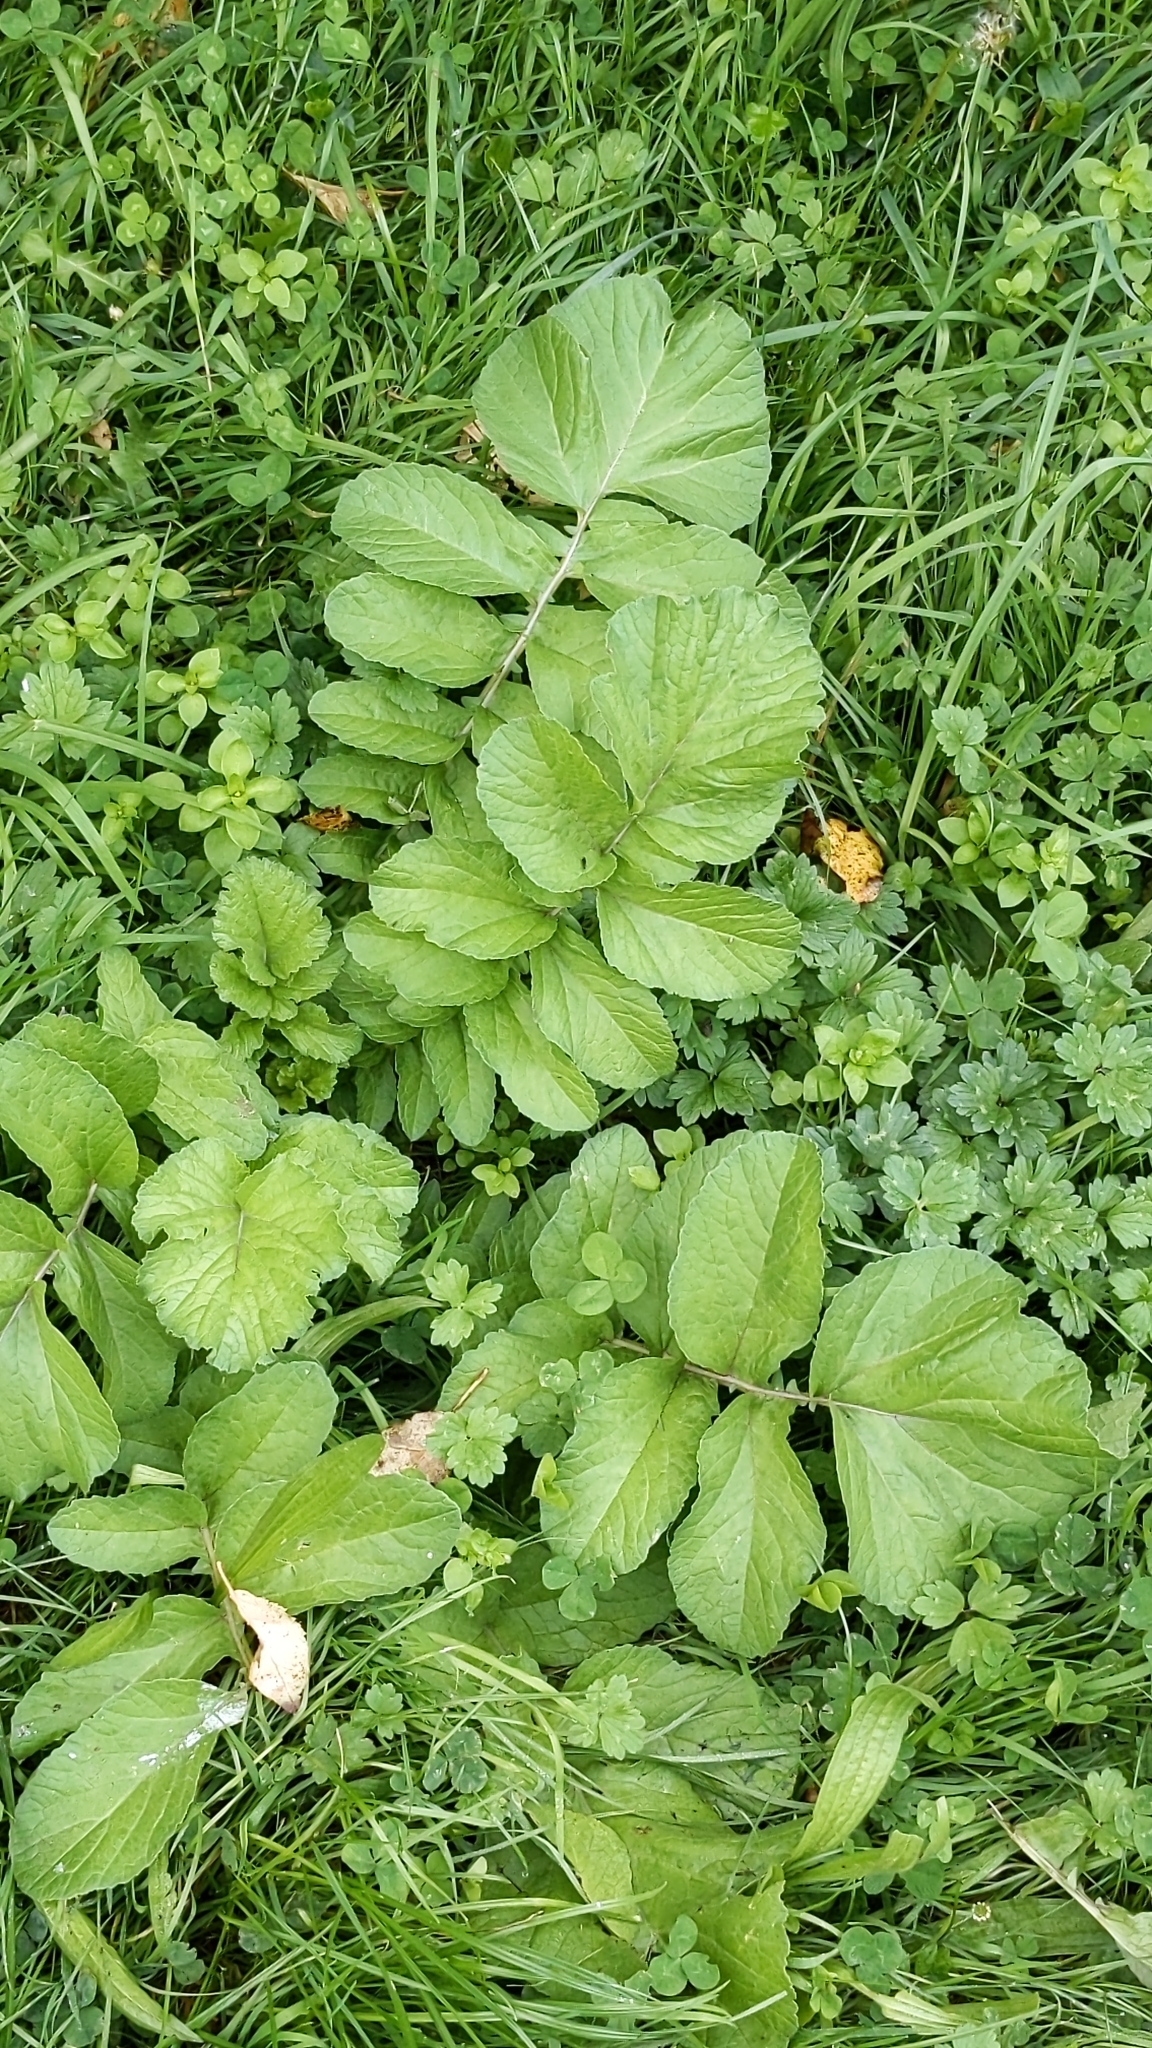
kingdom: Plantae
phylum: Tracheophyta
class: Magnoliopsida
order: Brassicales
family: Brassicaceae
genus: Raphanus
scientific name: Raphanus raphanistrum
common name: Wild radish
